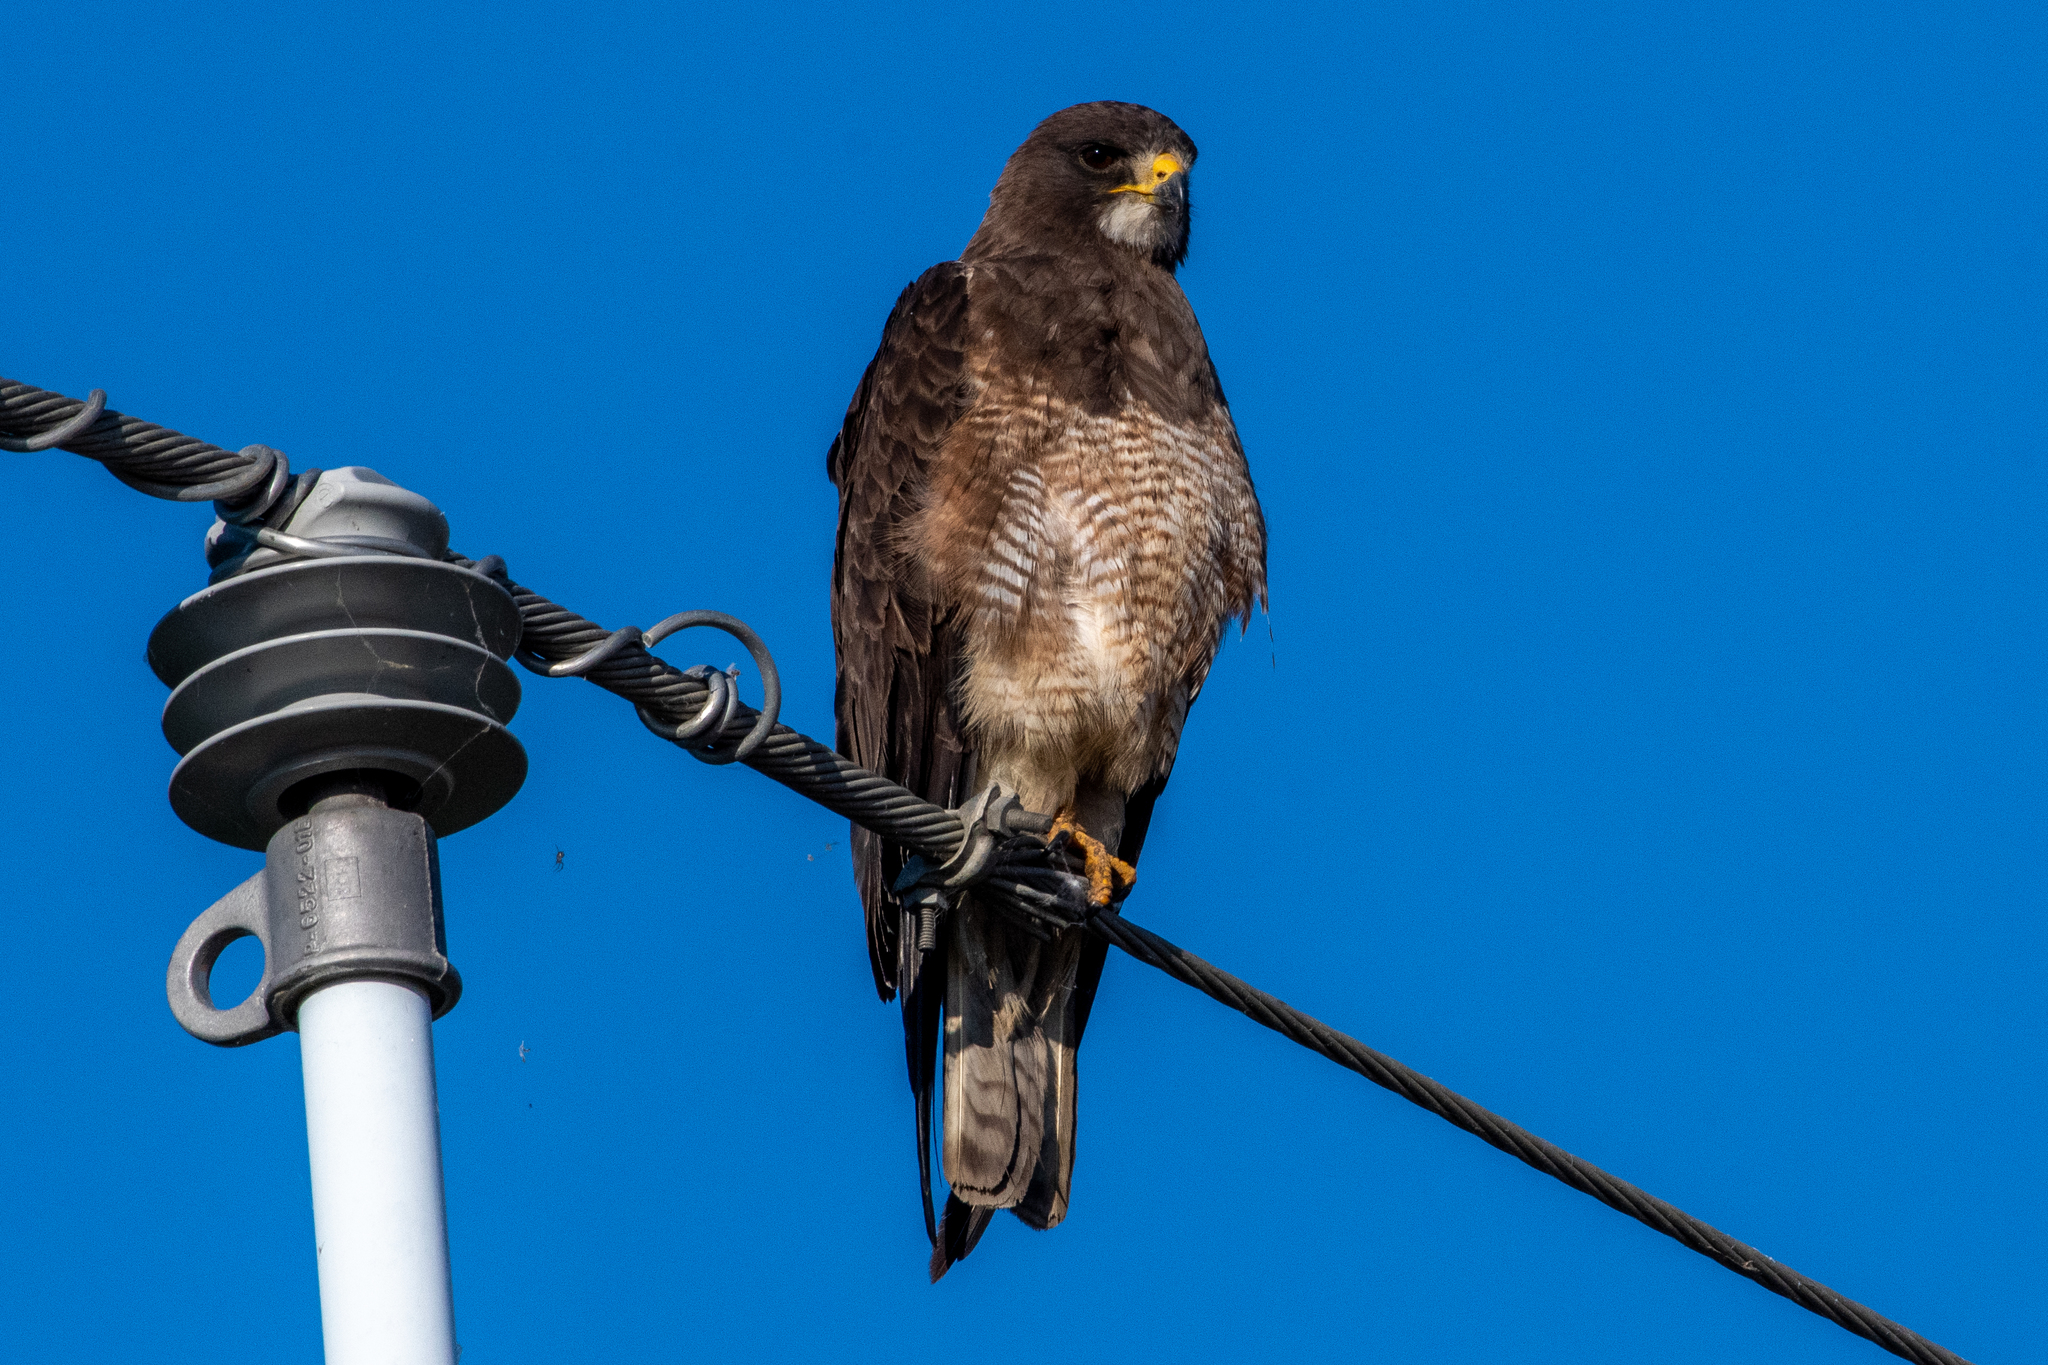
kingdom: Animalia
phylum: Chordata
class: Aves
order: Accipitriformes
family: Accipitridae
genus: Buteo
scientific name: Buteo swainsoni
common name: Swainson's hawk
